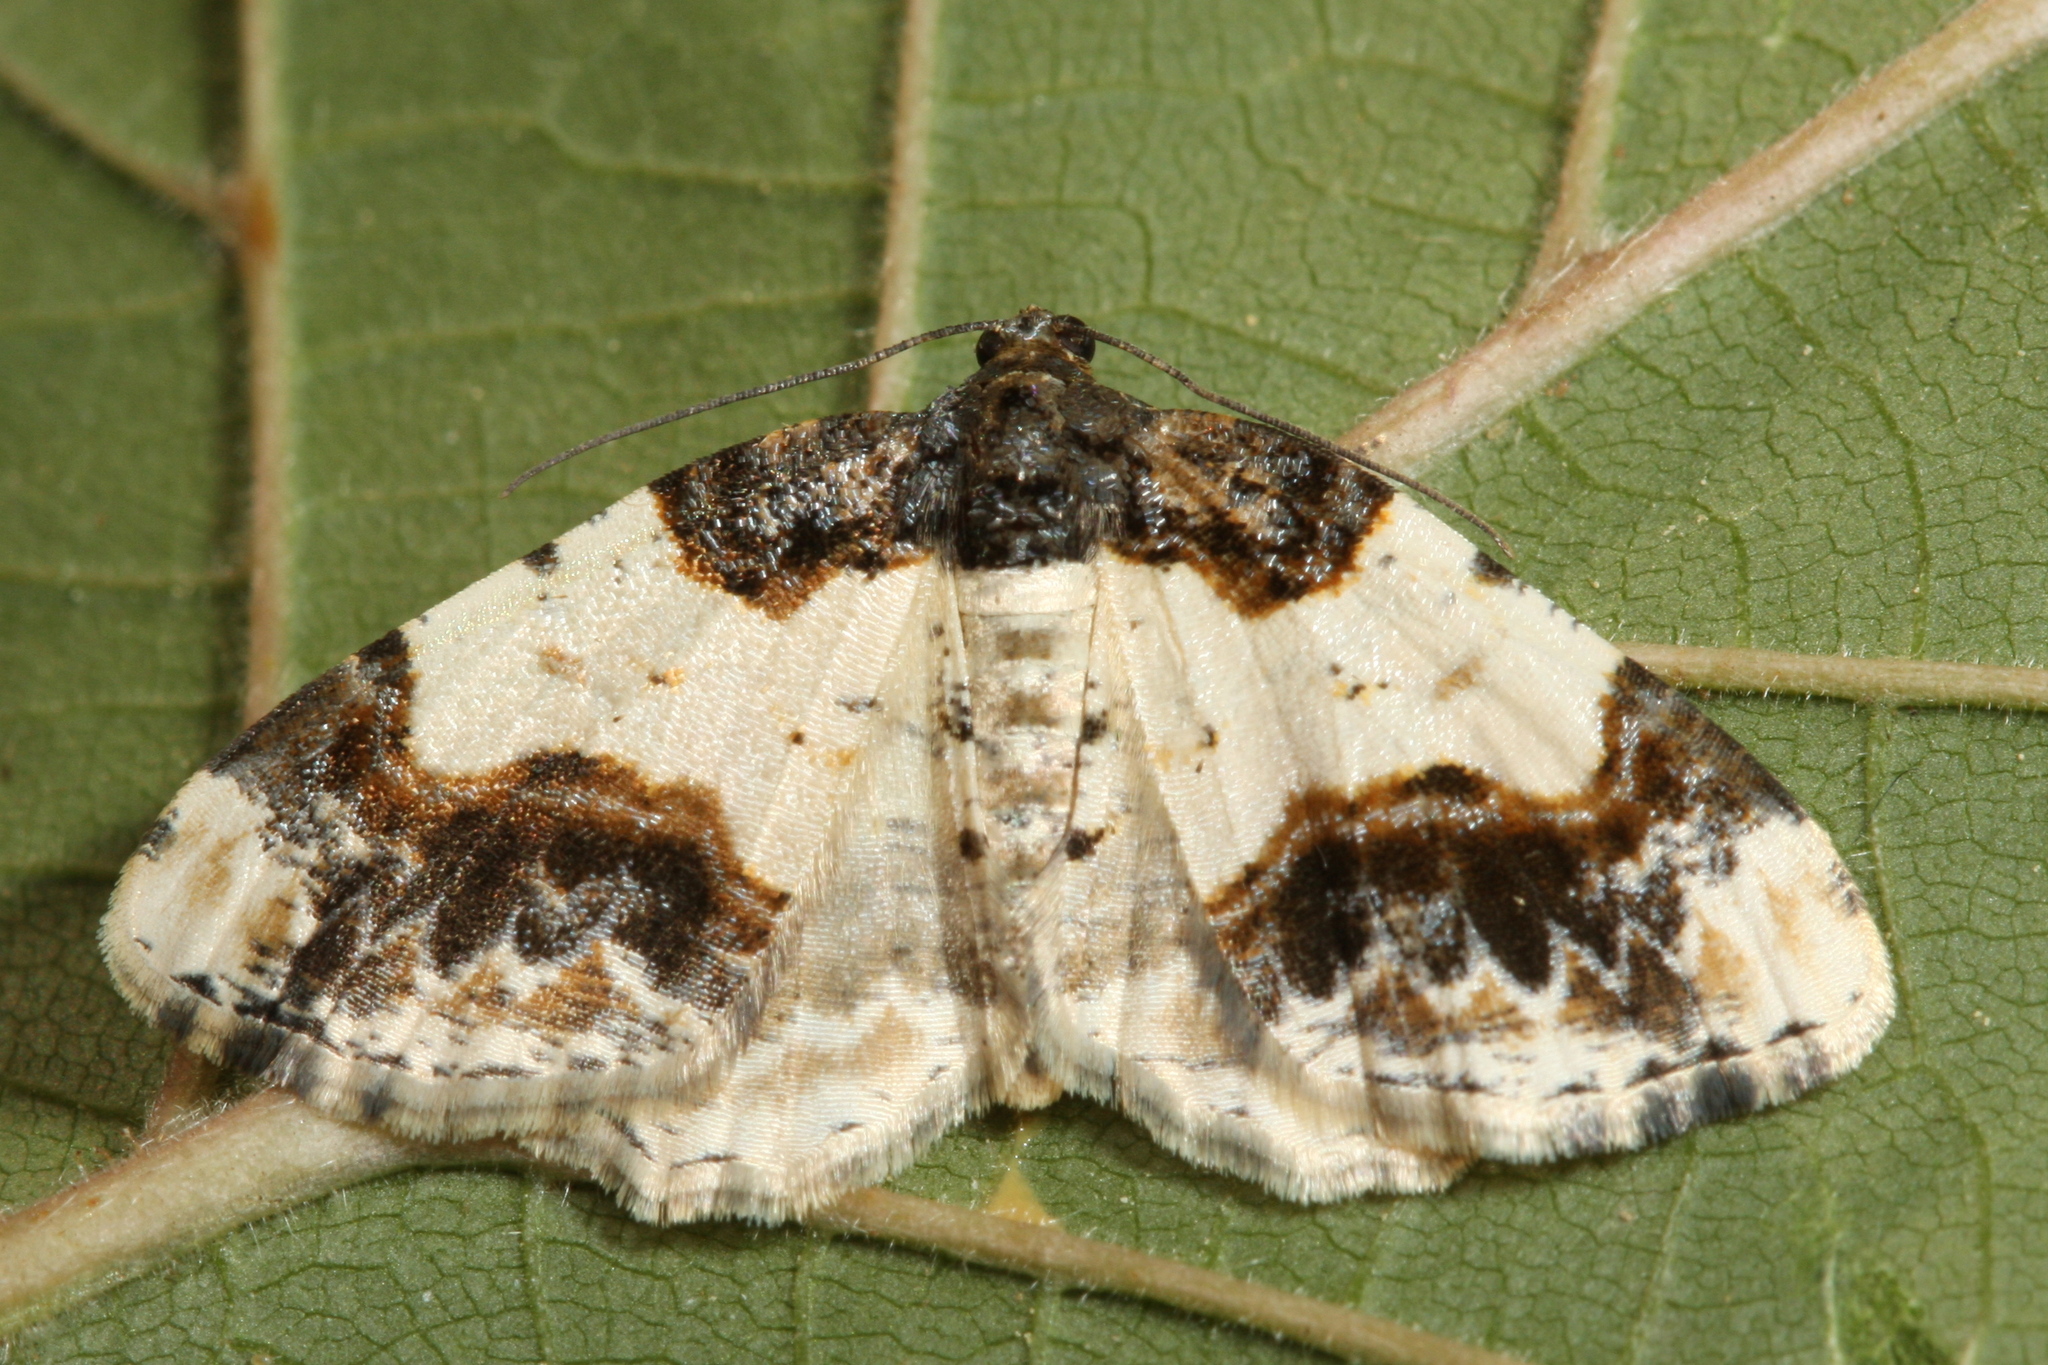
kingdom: Animalia
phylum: Arthropoda
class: Insecta
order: Lepidoptera
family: Geometridae
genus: Ligdia
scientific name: Ligdia adustata
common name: Scorched carpet
